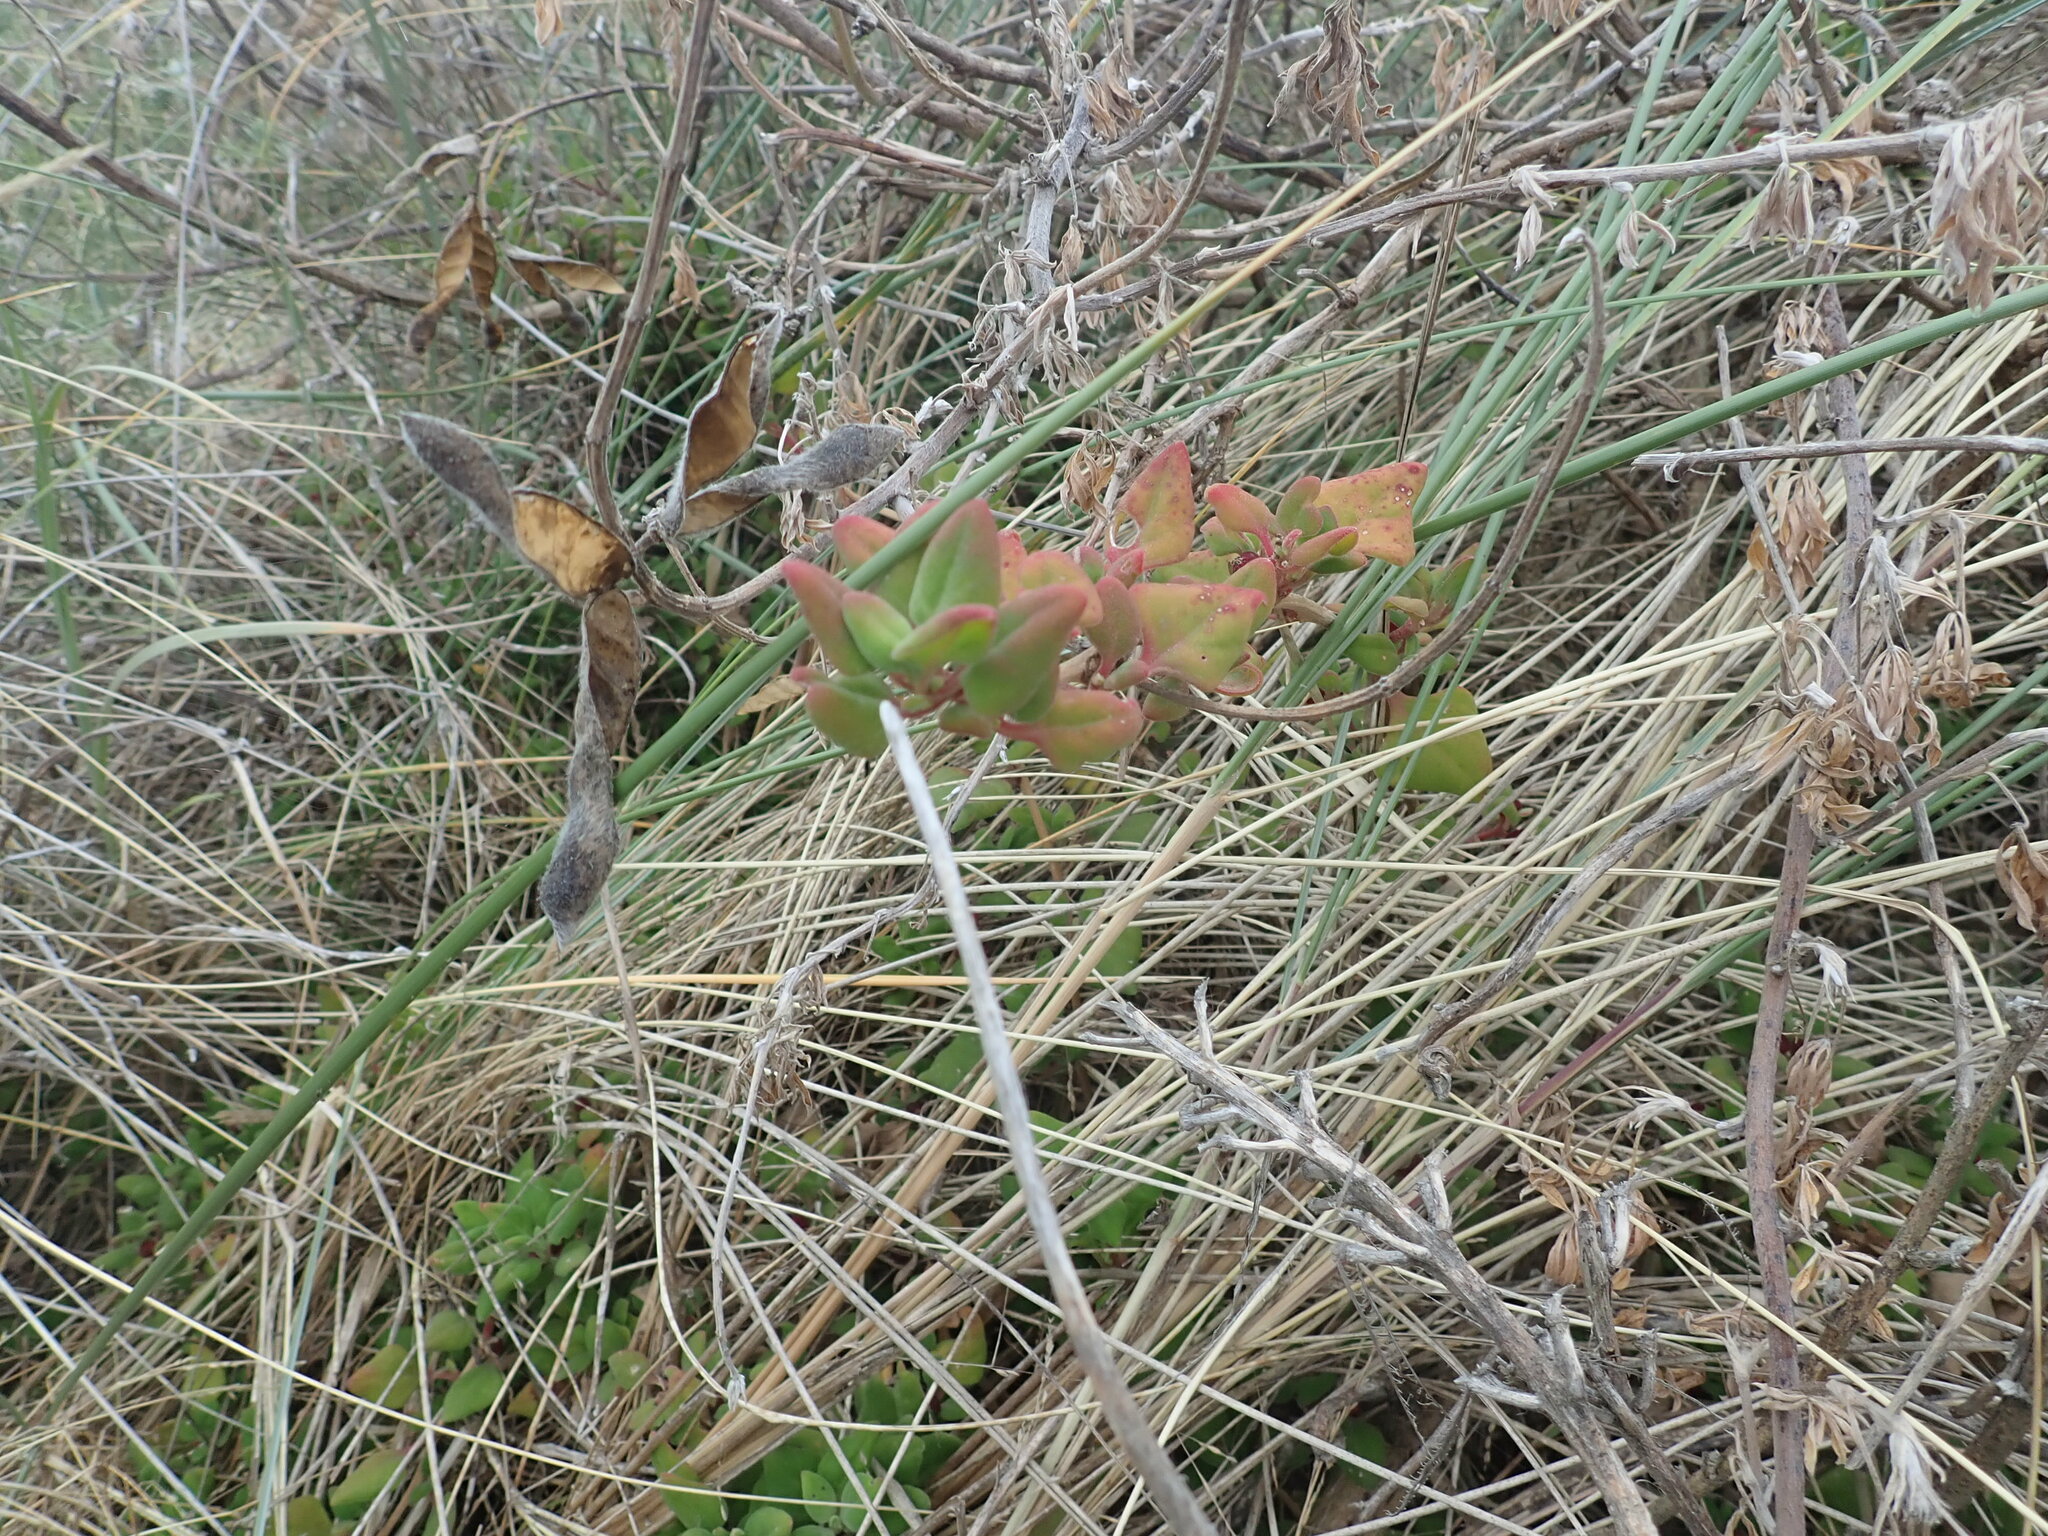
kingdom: Plantae
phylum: Tracheophyta
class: Magnoliopsida
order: Caryophyllales
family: Aizoaceae
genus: Tetragonia
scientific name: Tetragonia implexicoma
